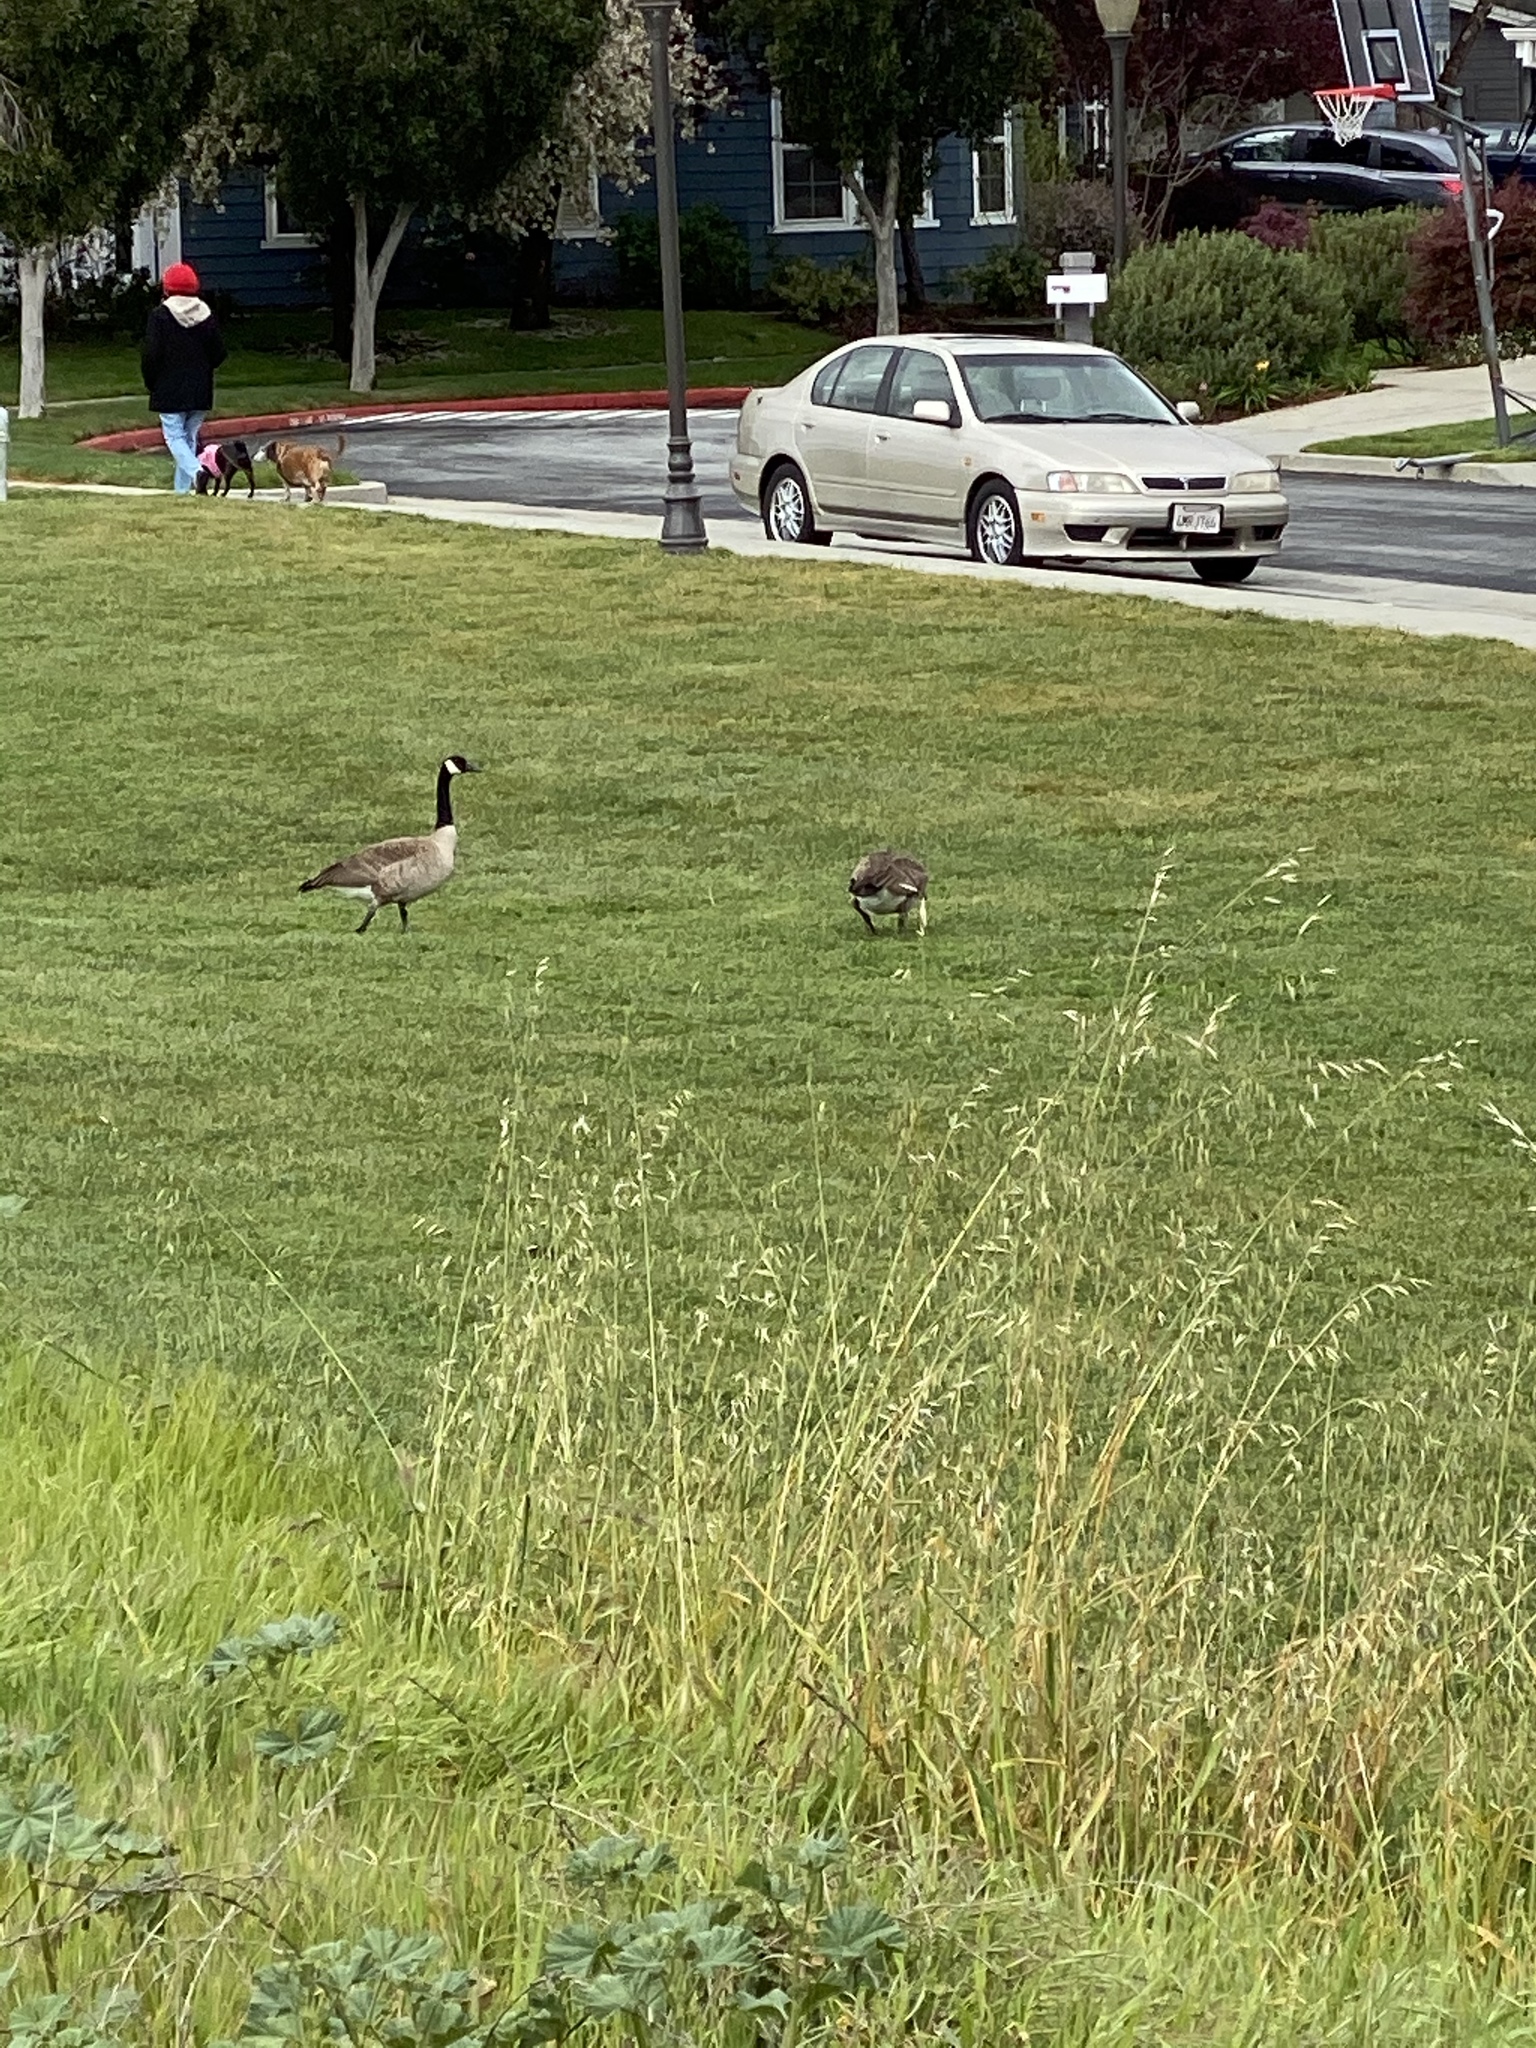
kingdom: Animalia
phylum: Chordata
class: Aves
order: Anseriformes
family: Anatidae
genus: Branta
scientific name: Branta canadensis
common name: Canada goose
